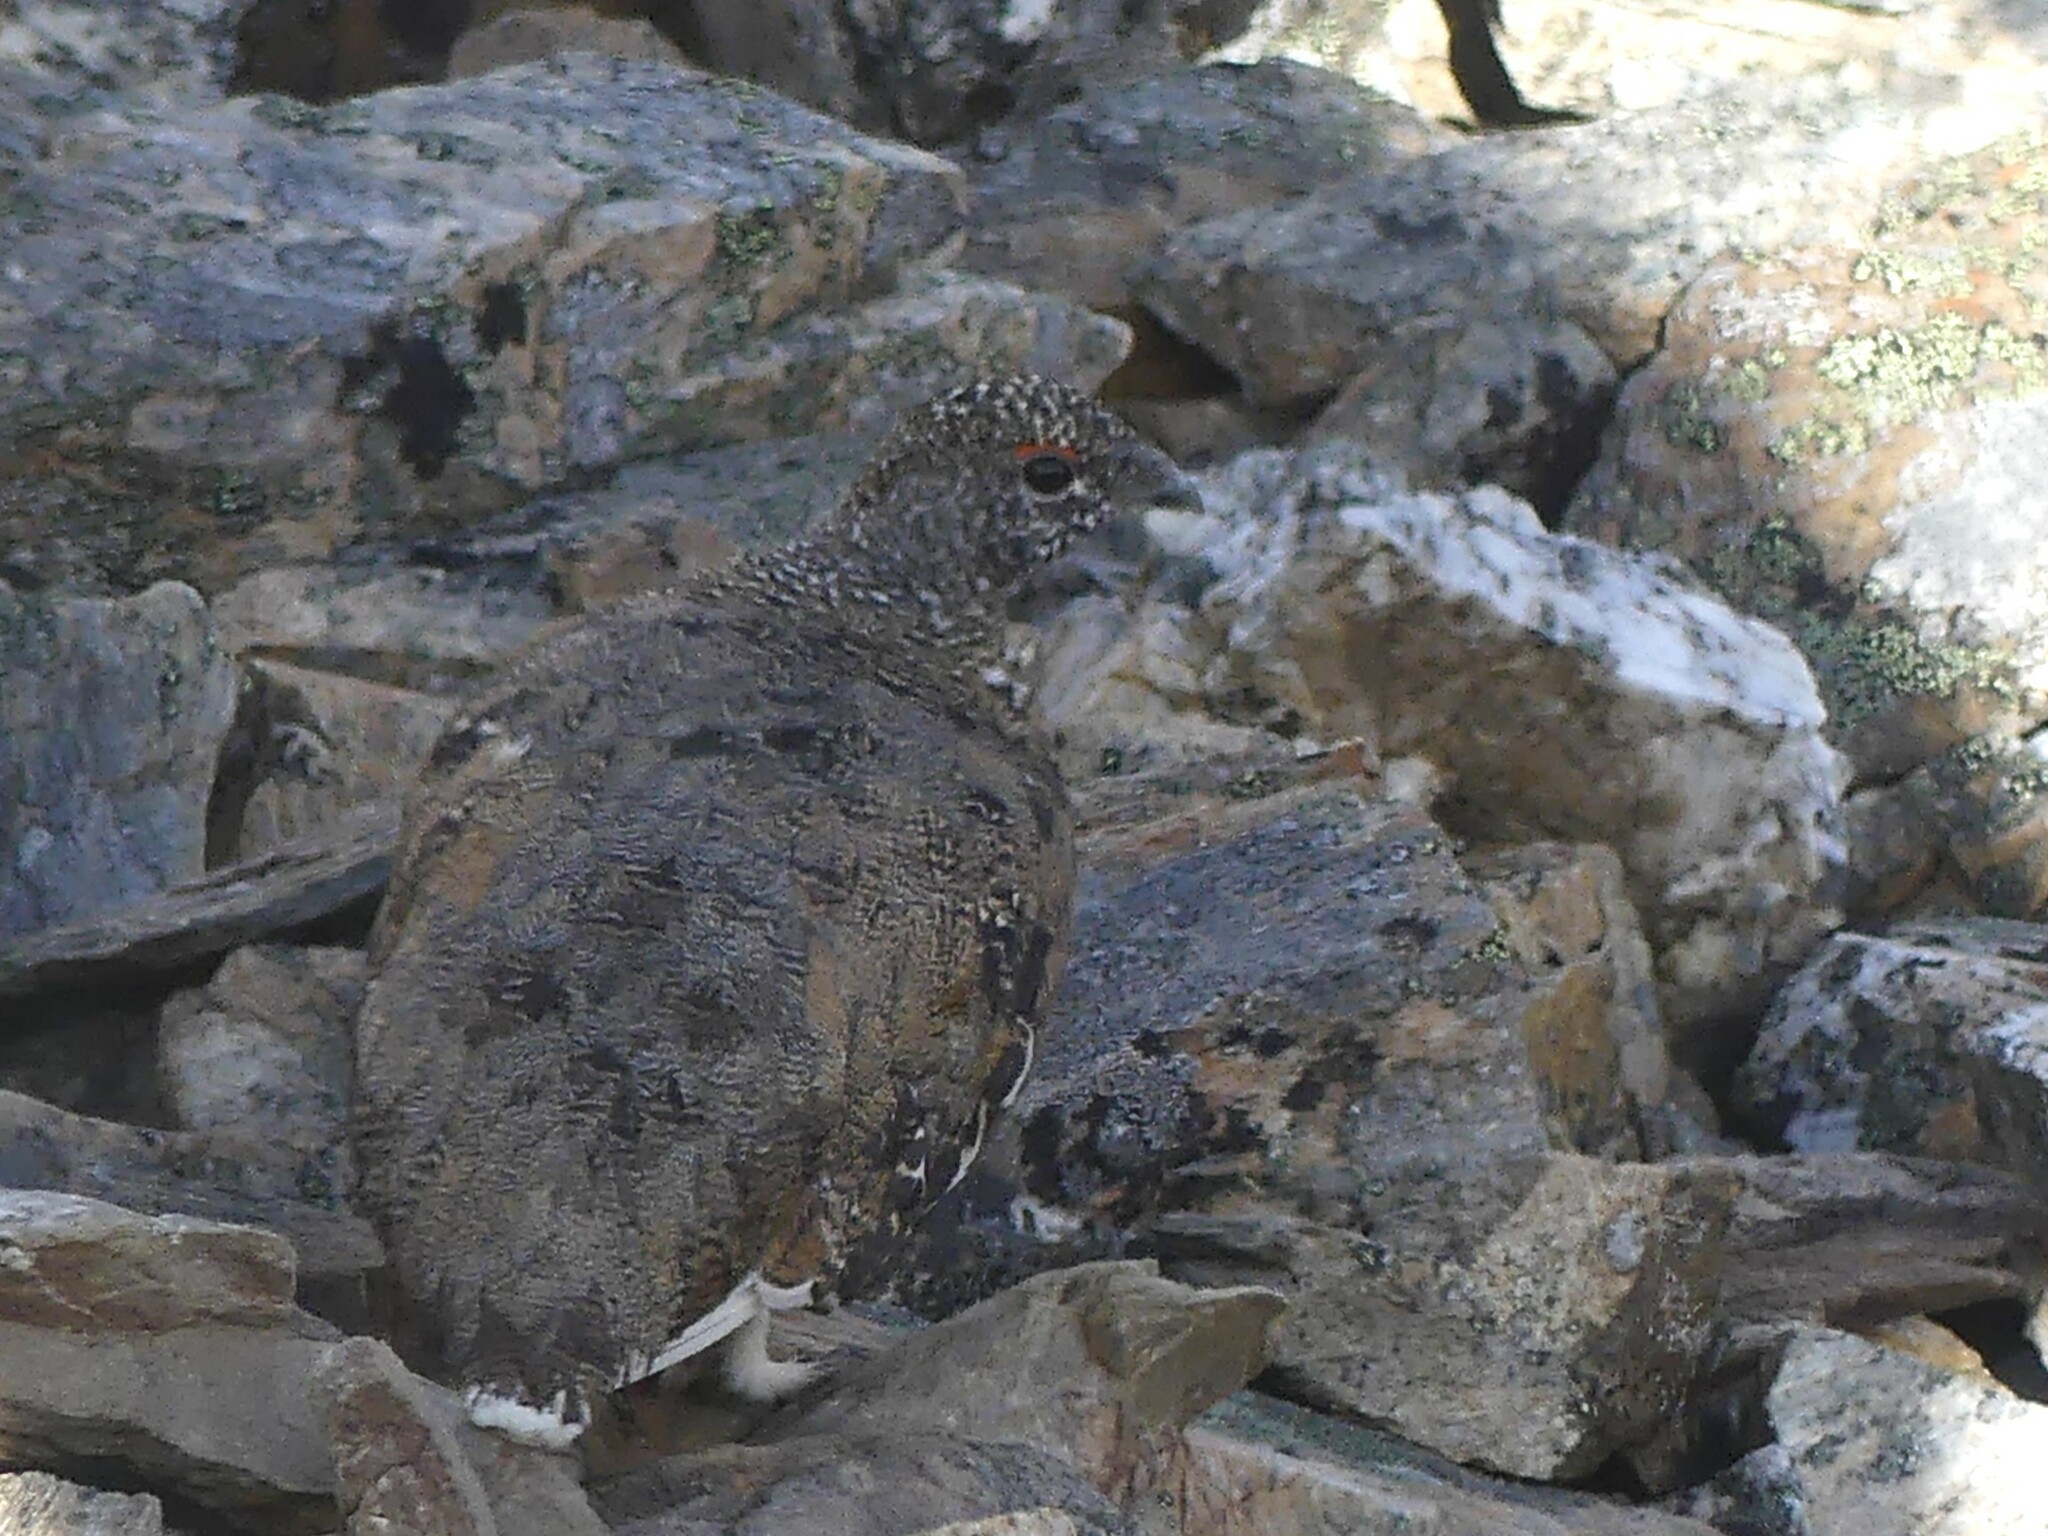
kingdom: Animalia
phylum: Chordata
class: Aves
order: Galliformes
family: Phasianidae
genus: Lagopus
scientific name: Lagopus leucura
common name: White-tailed ptarmigan
